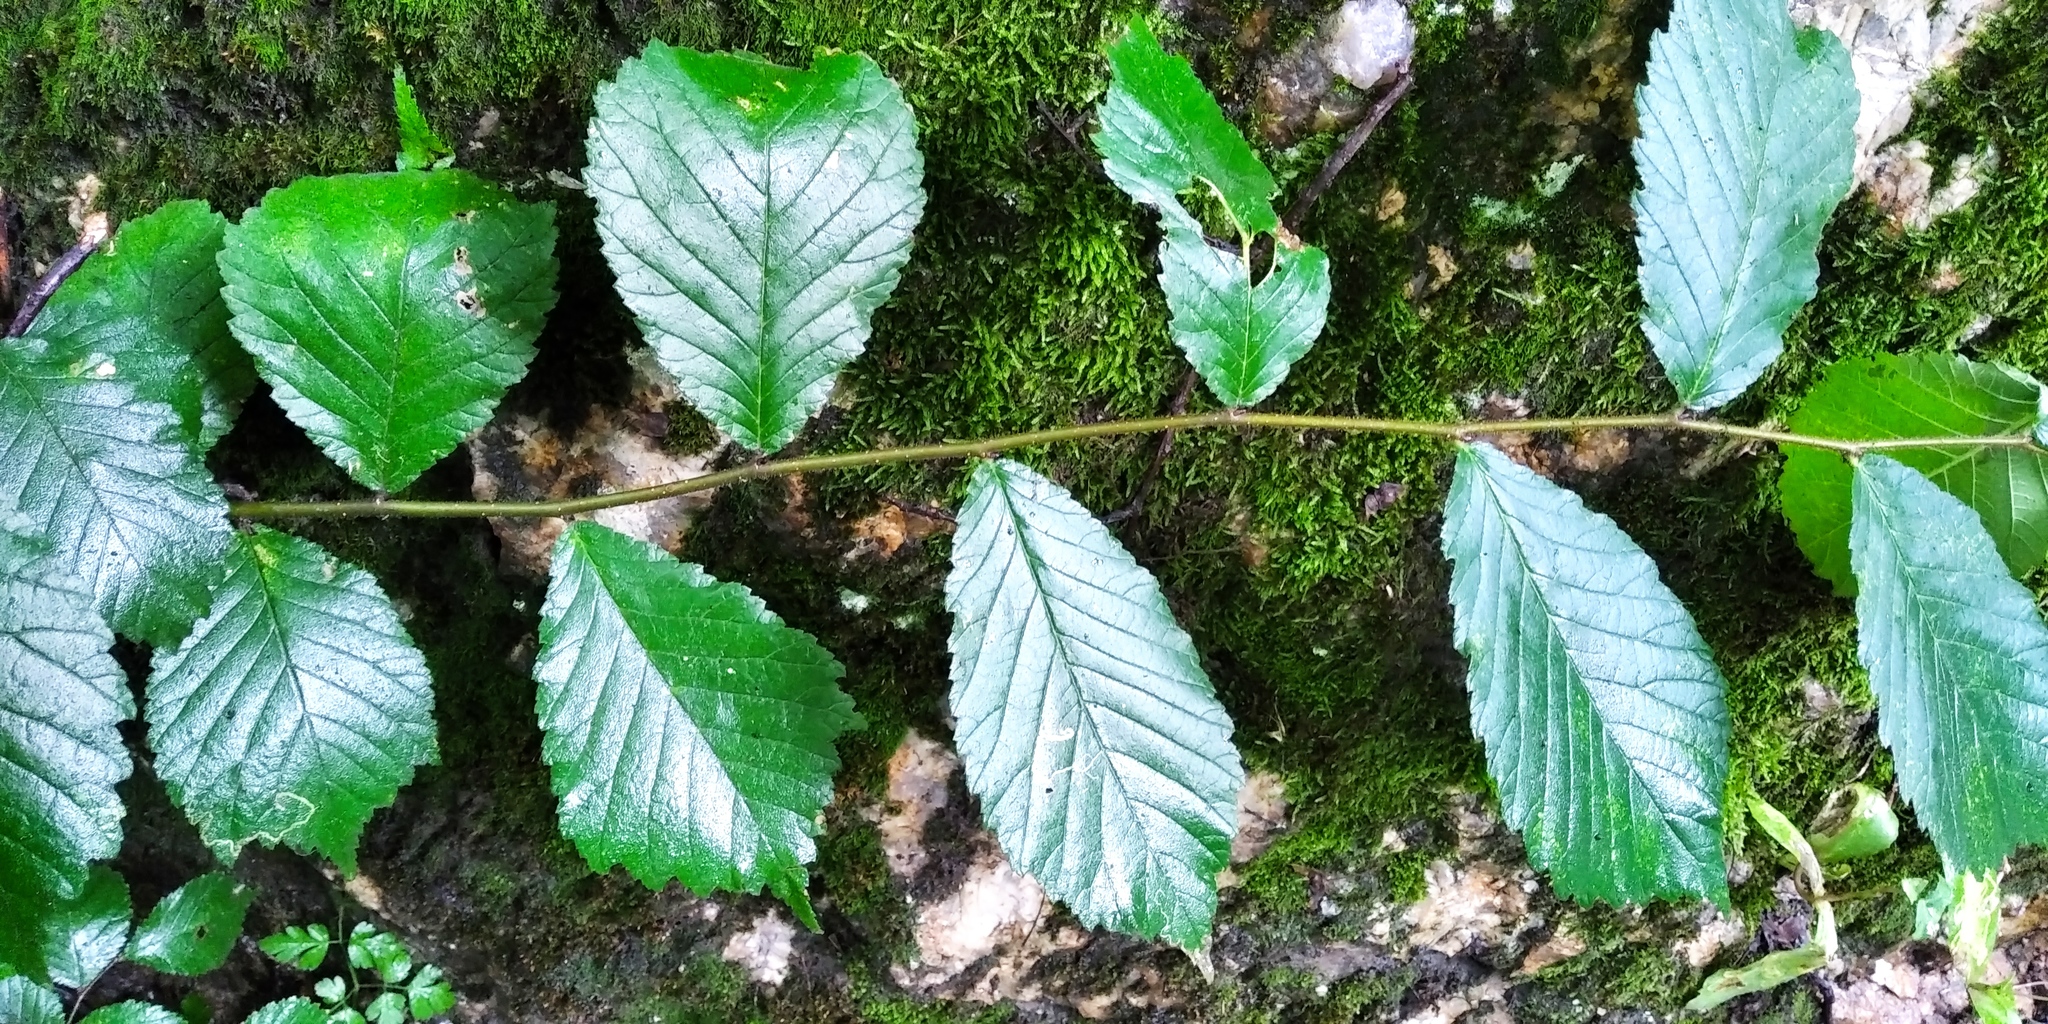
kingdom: Plantae
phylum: Tracheophyta
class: Magnoliopsida
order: Rosales
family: Ulmaceae
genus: Ulmus
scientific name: Ulmus glabra
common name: Wych elm
